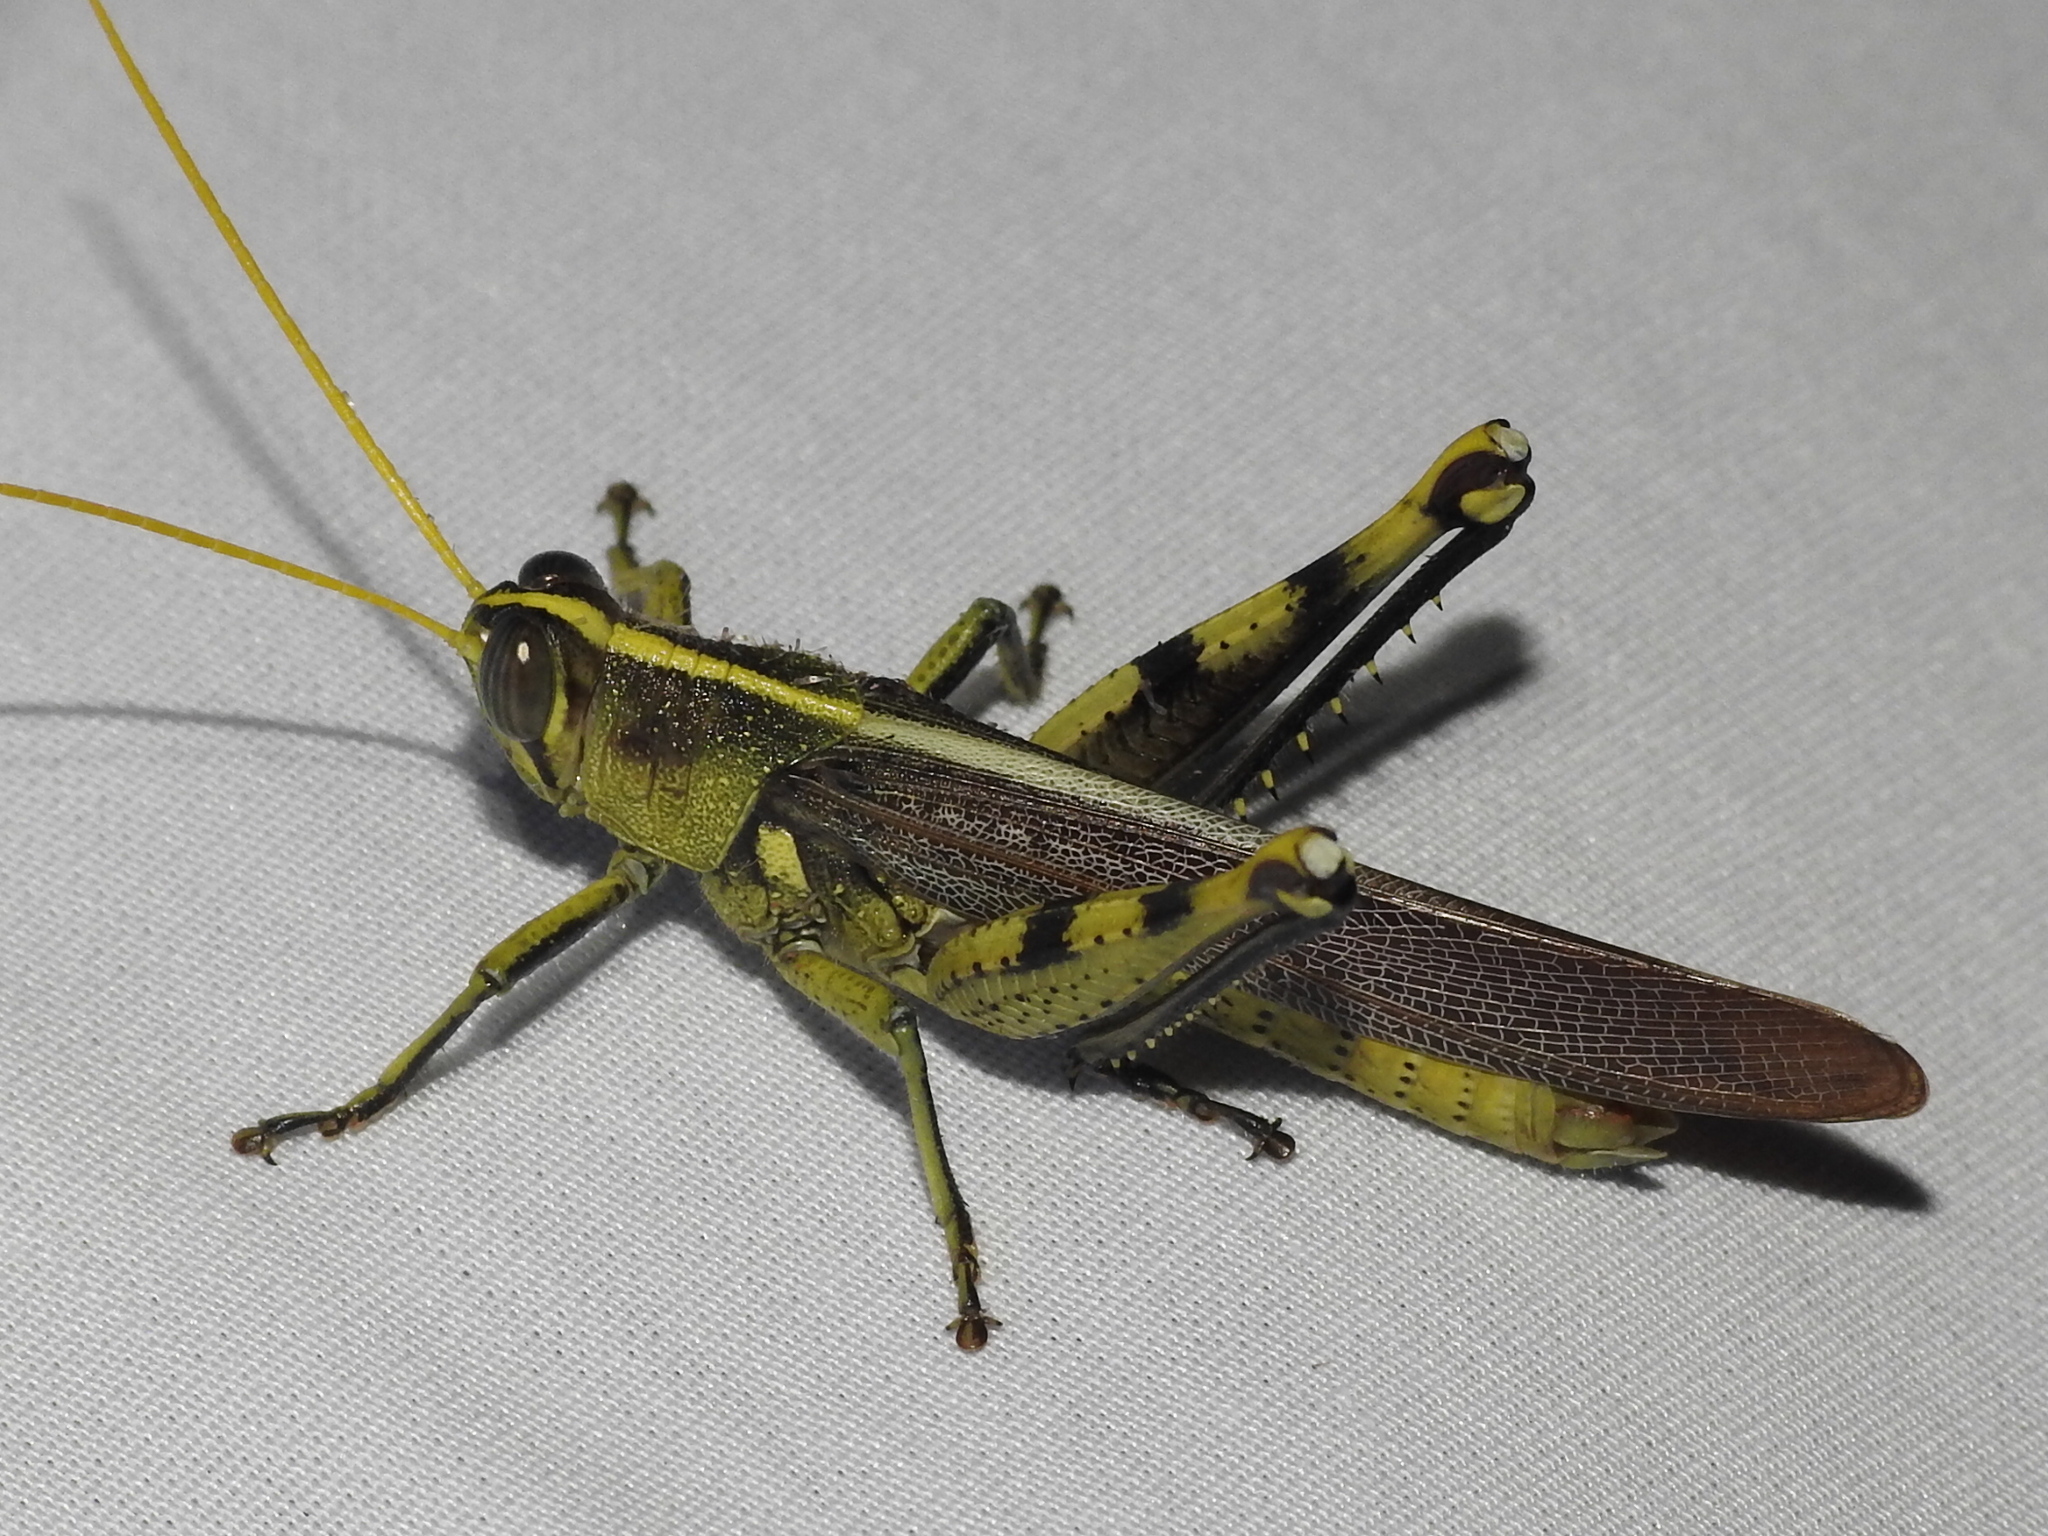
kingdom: Animalia
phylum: Arthropoda
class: Insecta
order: Orthoptera
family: Acrididae
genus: Schistocerca
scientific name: Schistocerca obscura
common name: Obscure bird grasshopper
